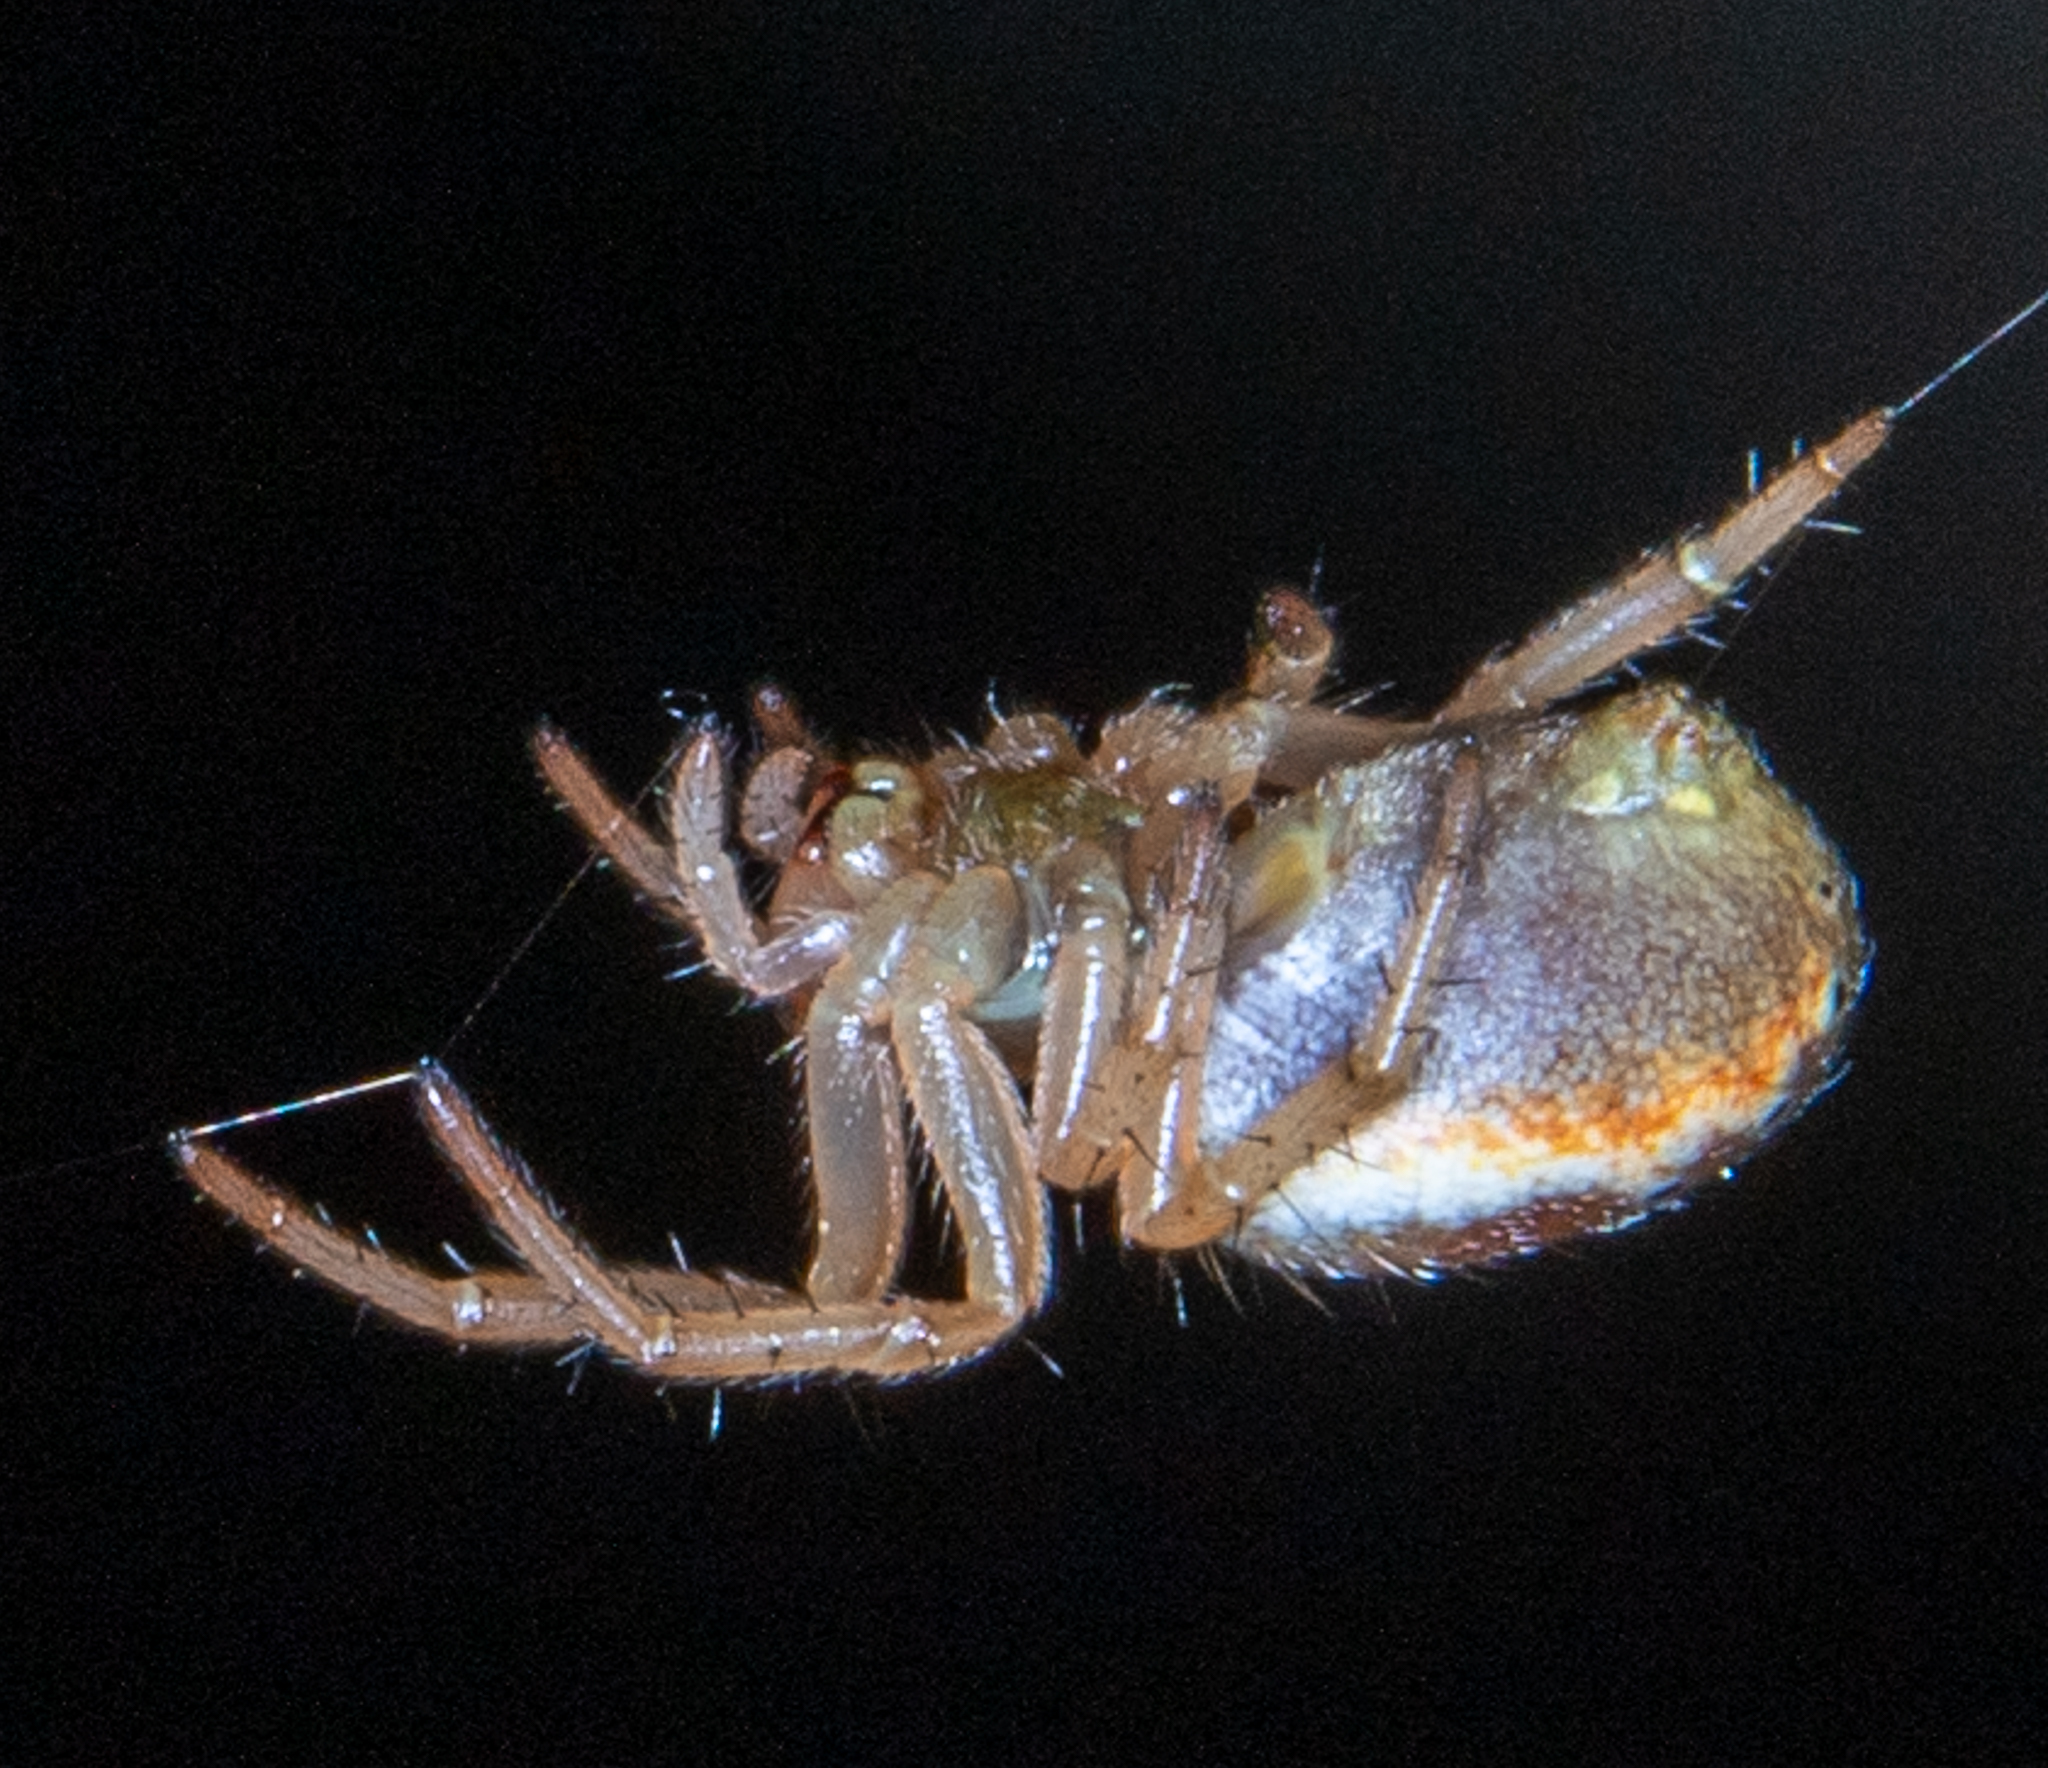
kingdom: Animalia
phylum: Arthropoda
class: Arachnida
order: Araneae
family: Araneidae
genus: Araniella
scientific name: Araniella displicata
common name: Sixspotted orb weaver
